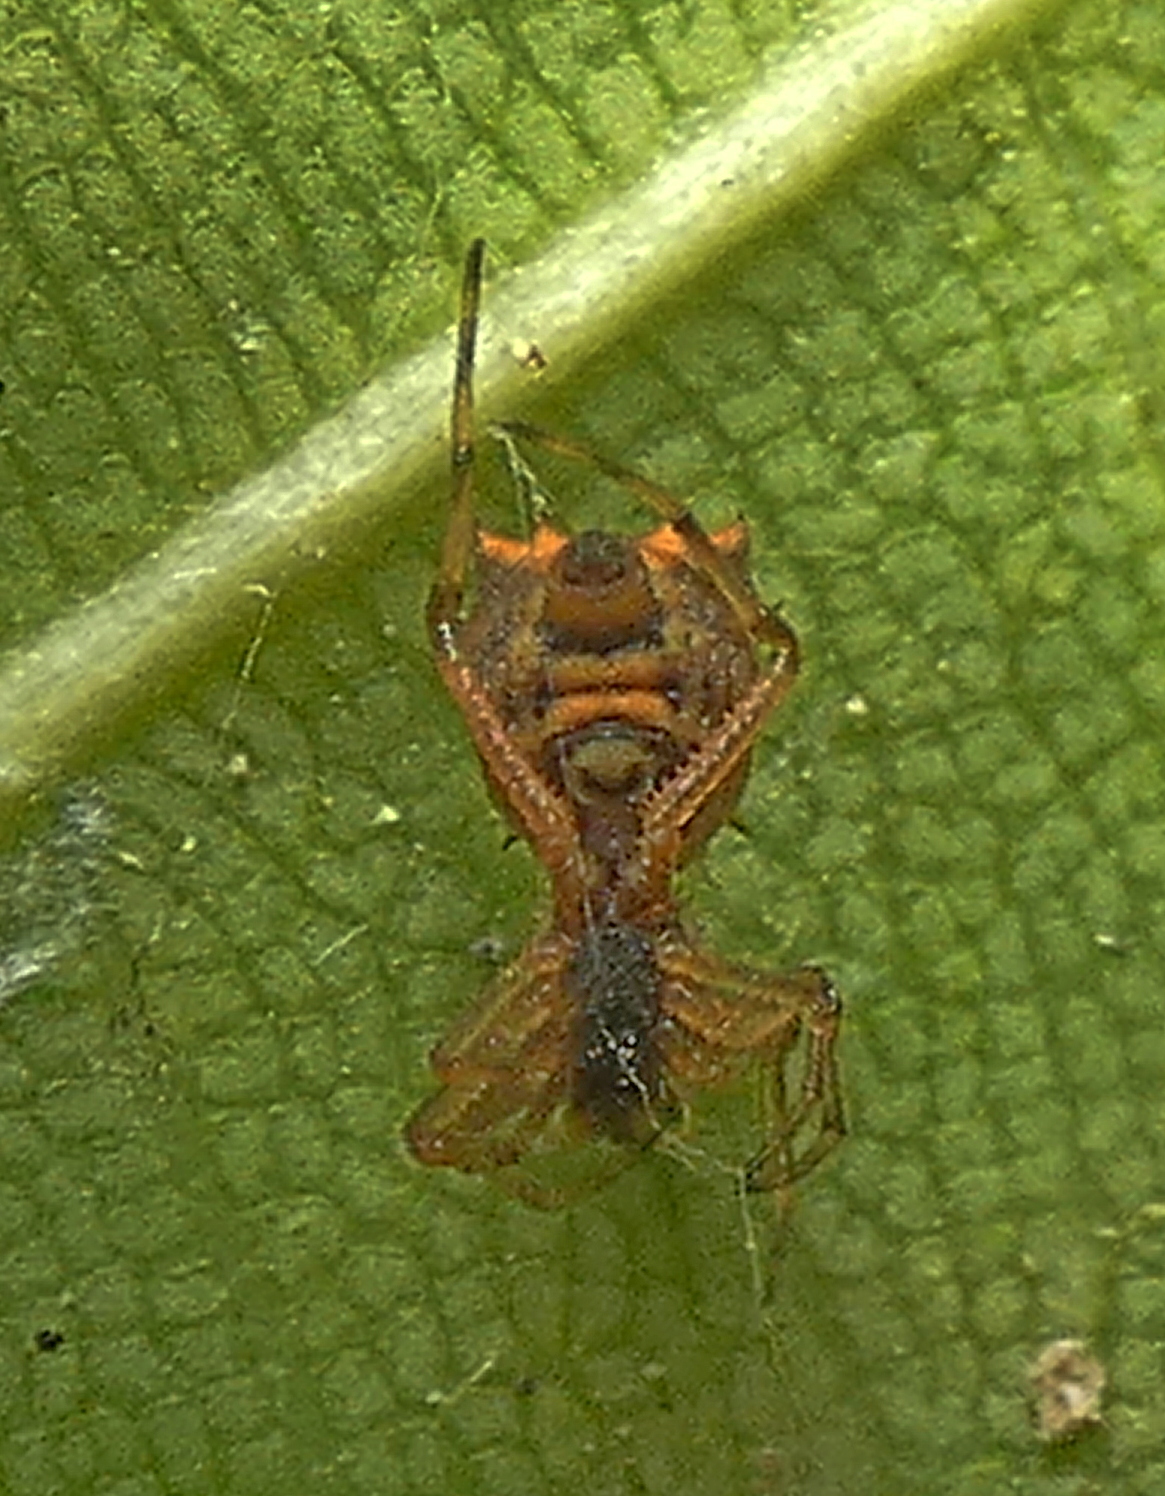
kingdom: Animalia
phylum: Arthropoda
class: Arachnida
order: Araneae
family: Araneidae
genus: Micrathena
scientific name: Micrathena picta
